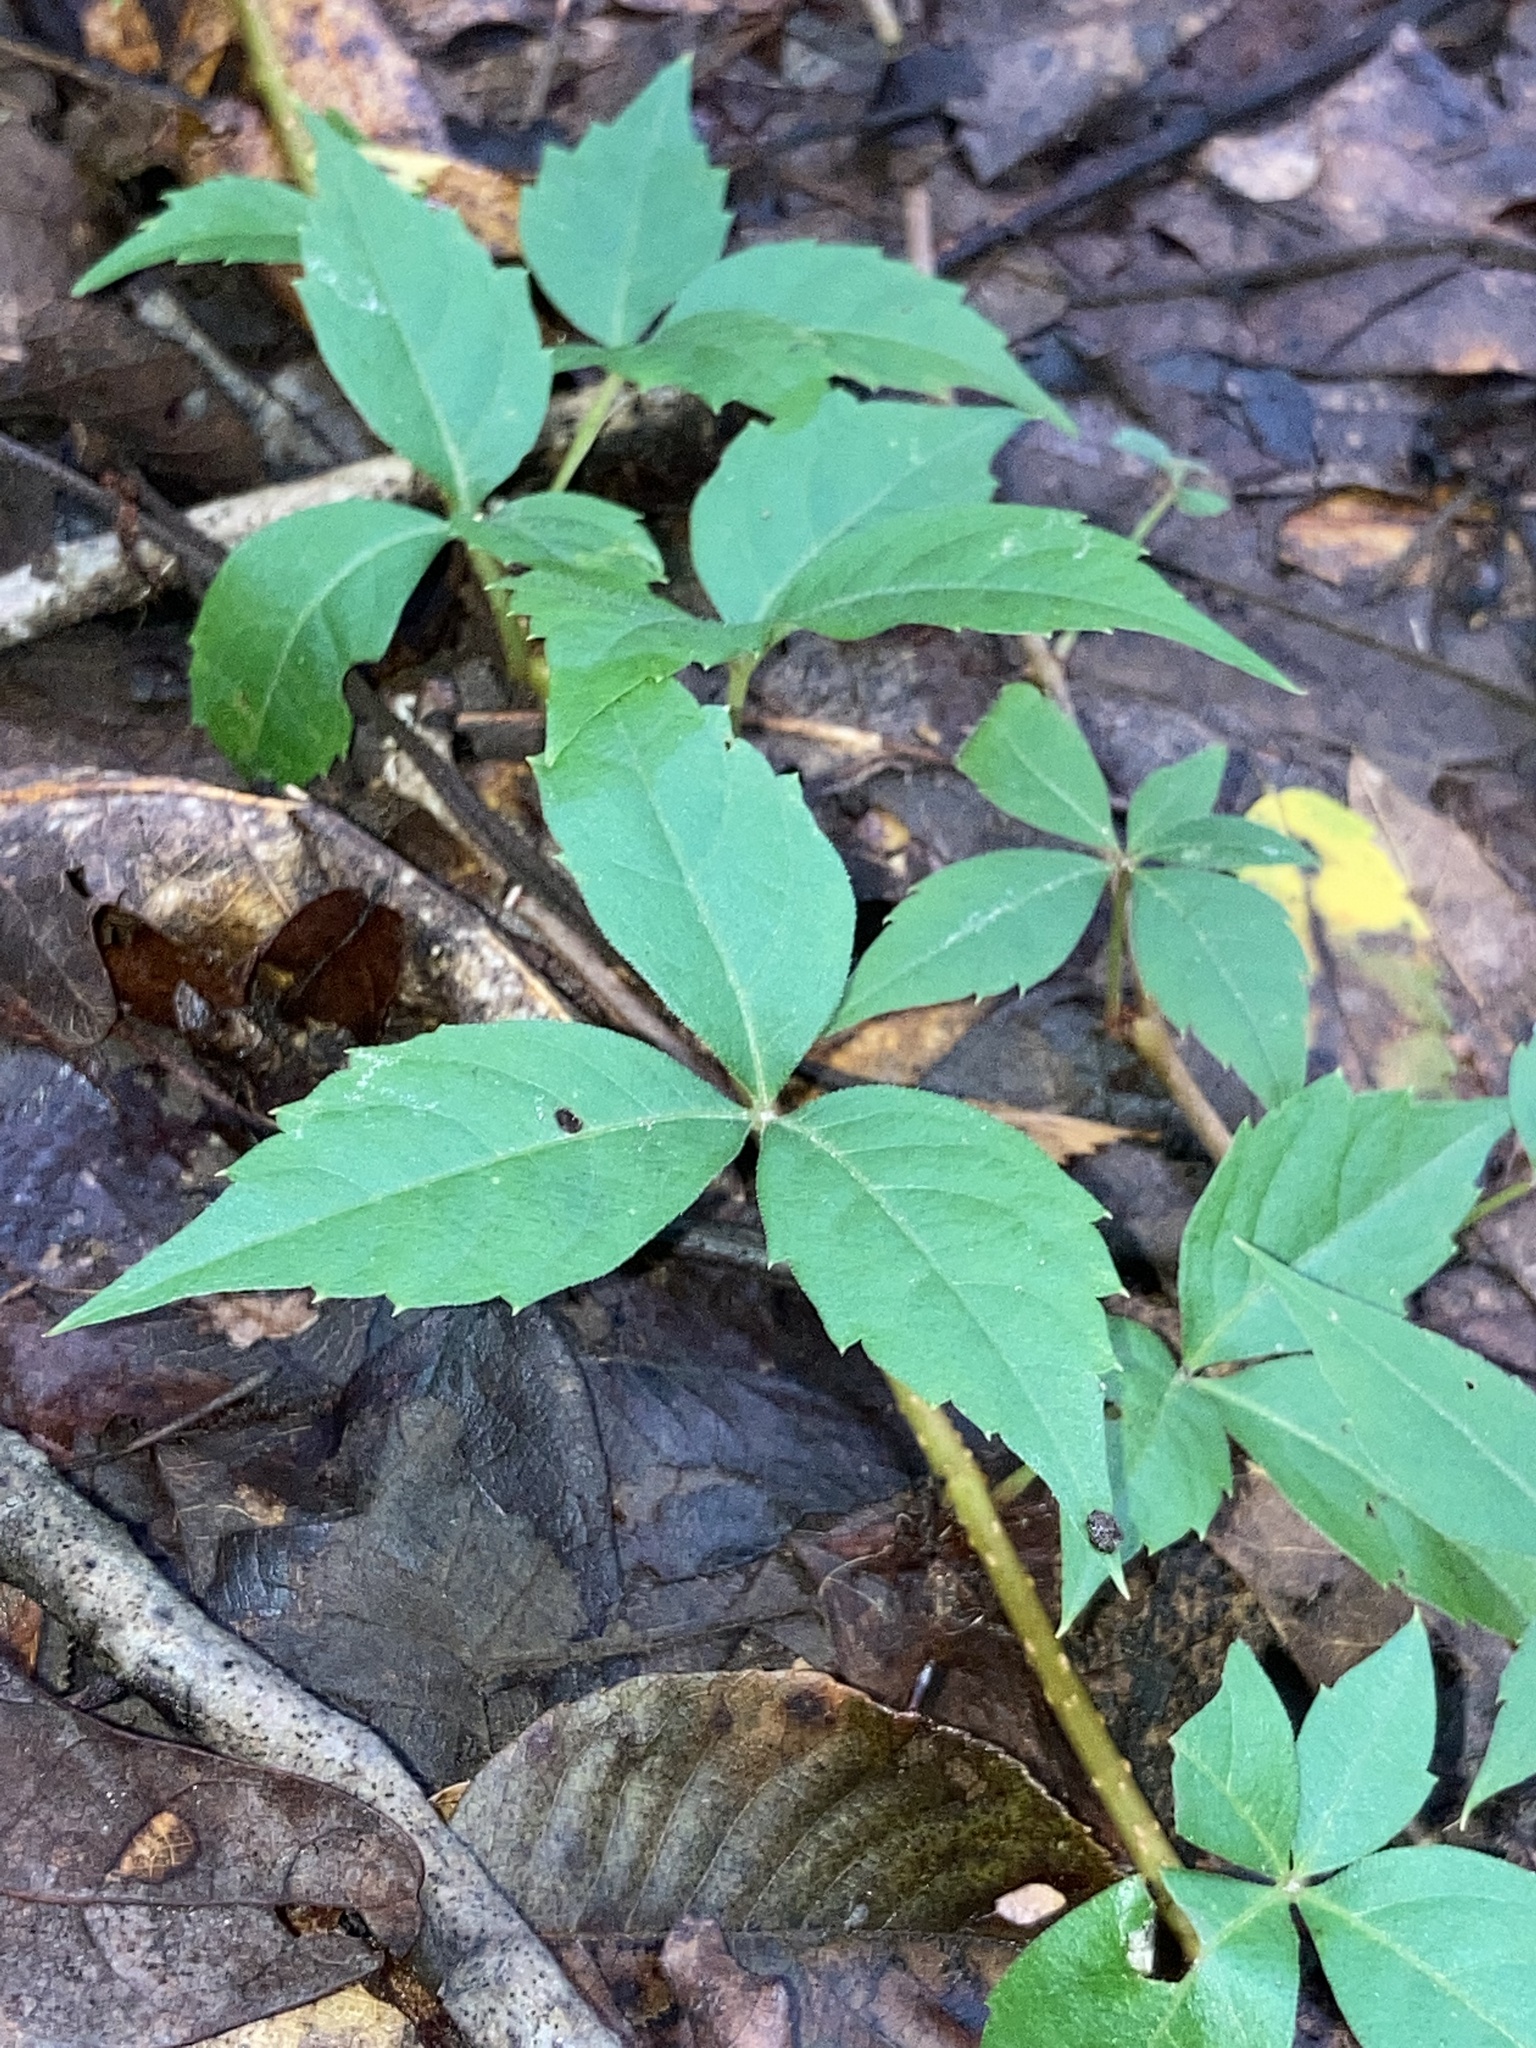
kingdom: Plantae
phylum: Tracheophyta
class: Magnoliopsida
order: Vitales
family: Vitaceae
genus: Parthenocissus
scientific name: Parthenocissus quinquefolia
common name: Virginia-creeper
